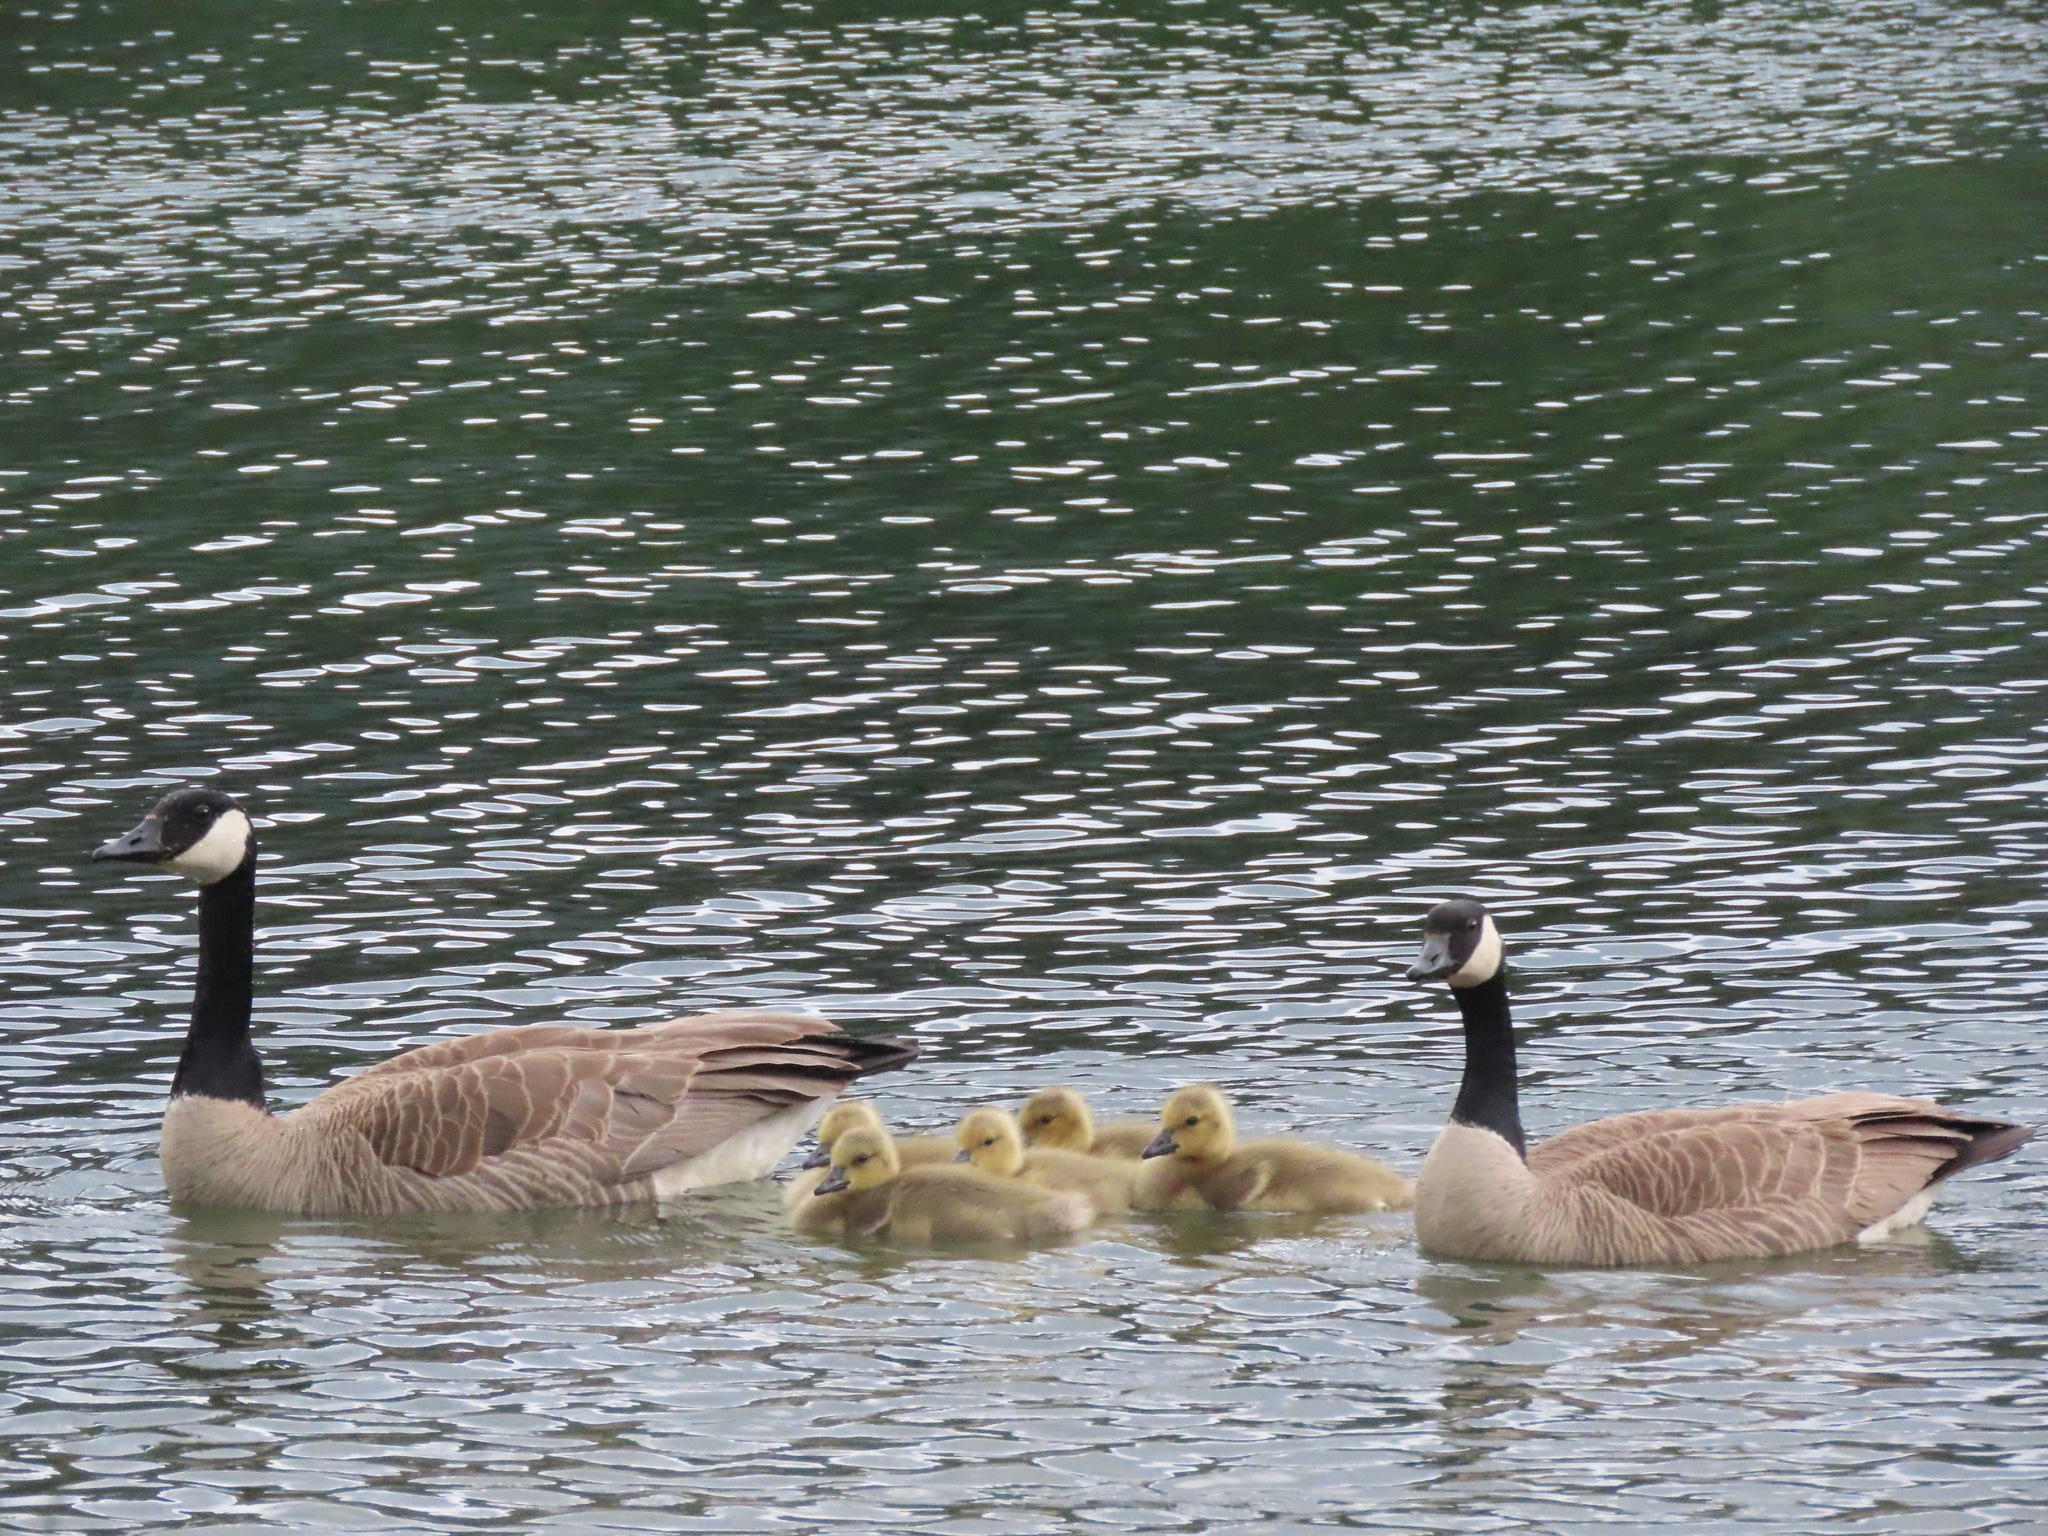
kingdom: Animalia
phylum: Chordata
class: Aves
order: Anseriformes
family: Anatidae
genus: Branta
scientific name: Branta canadensis
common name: Canada goose
